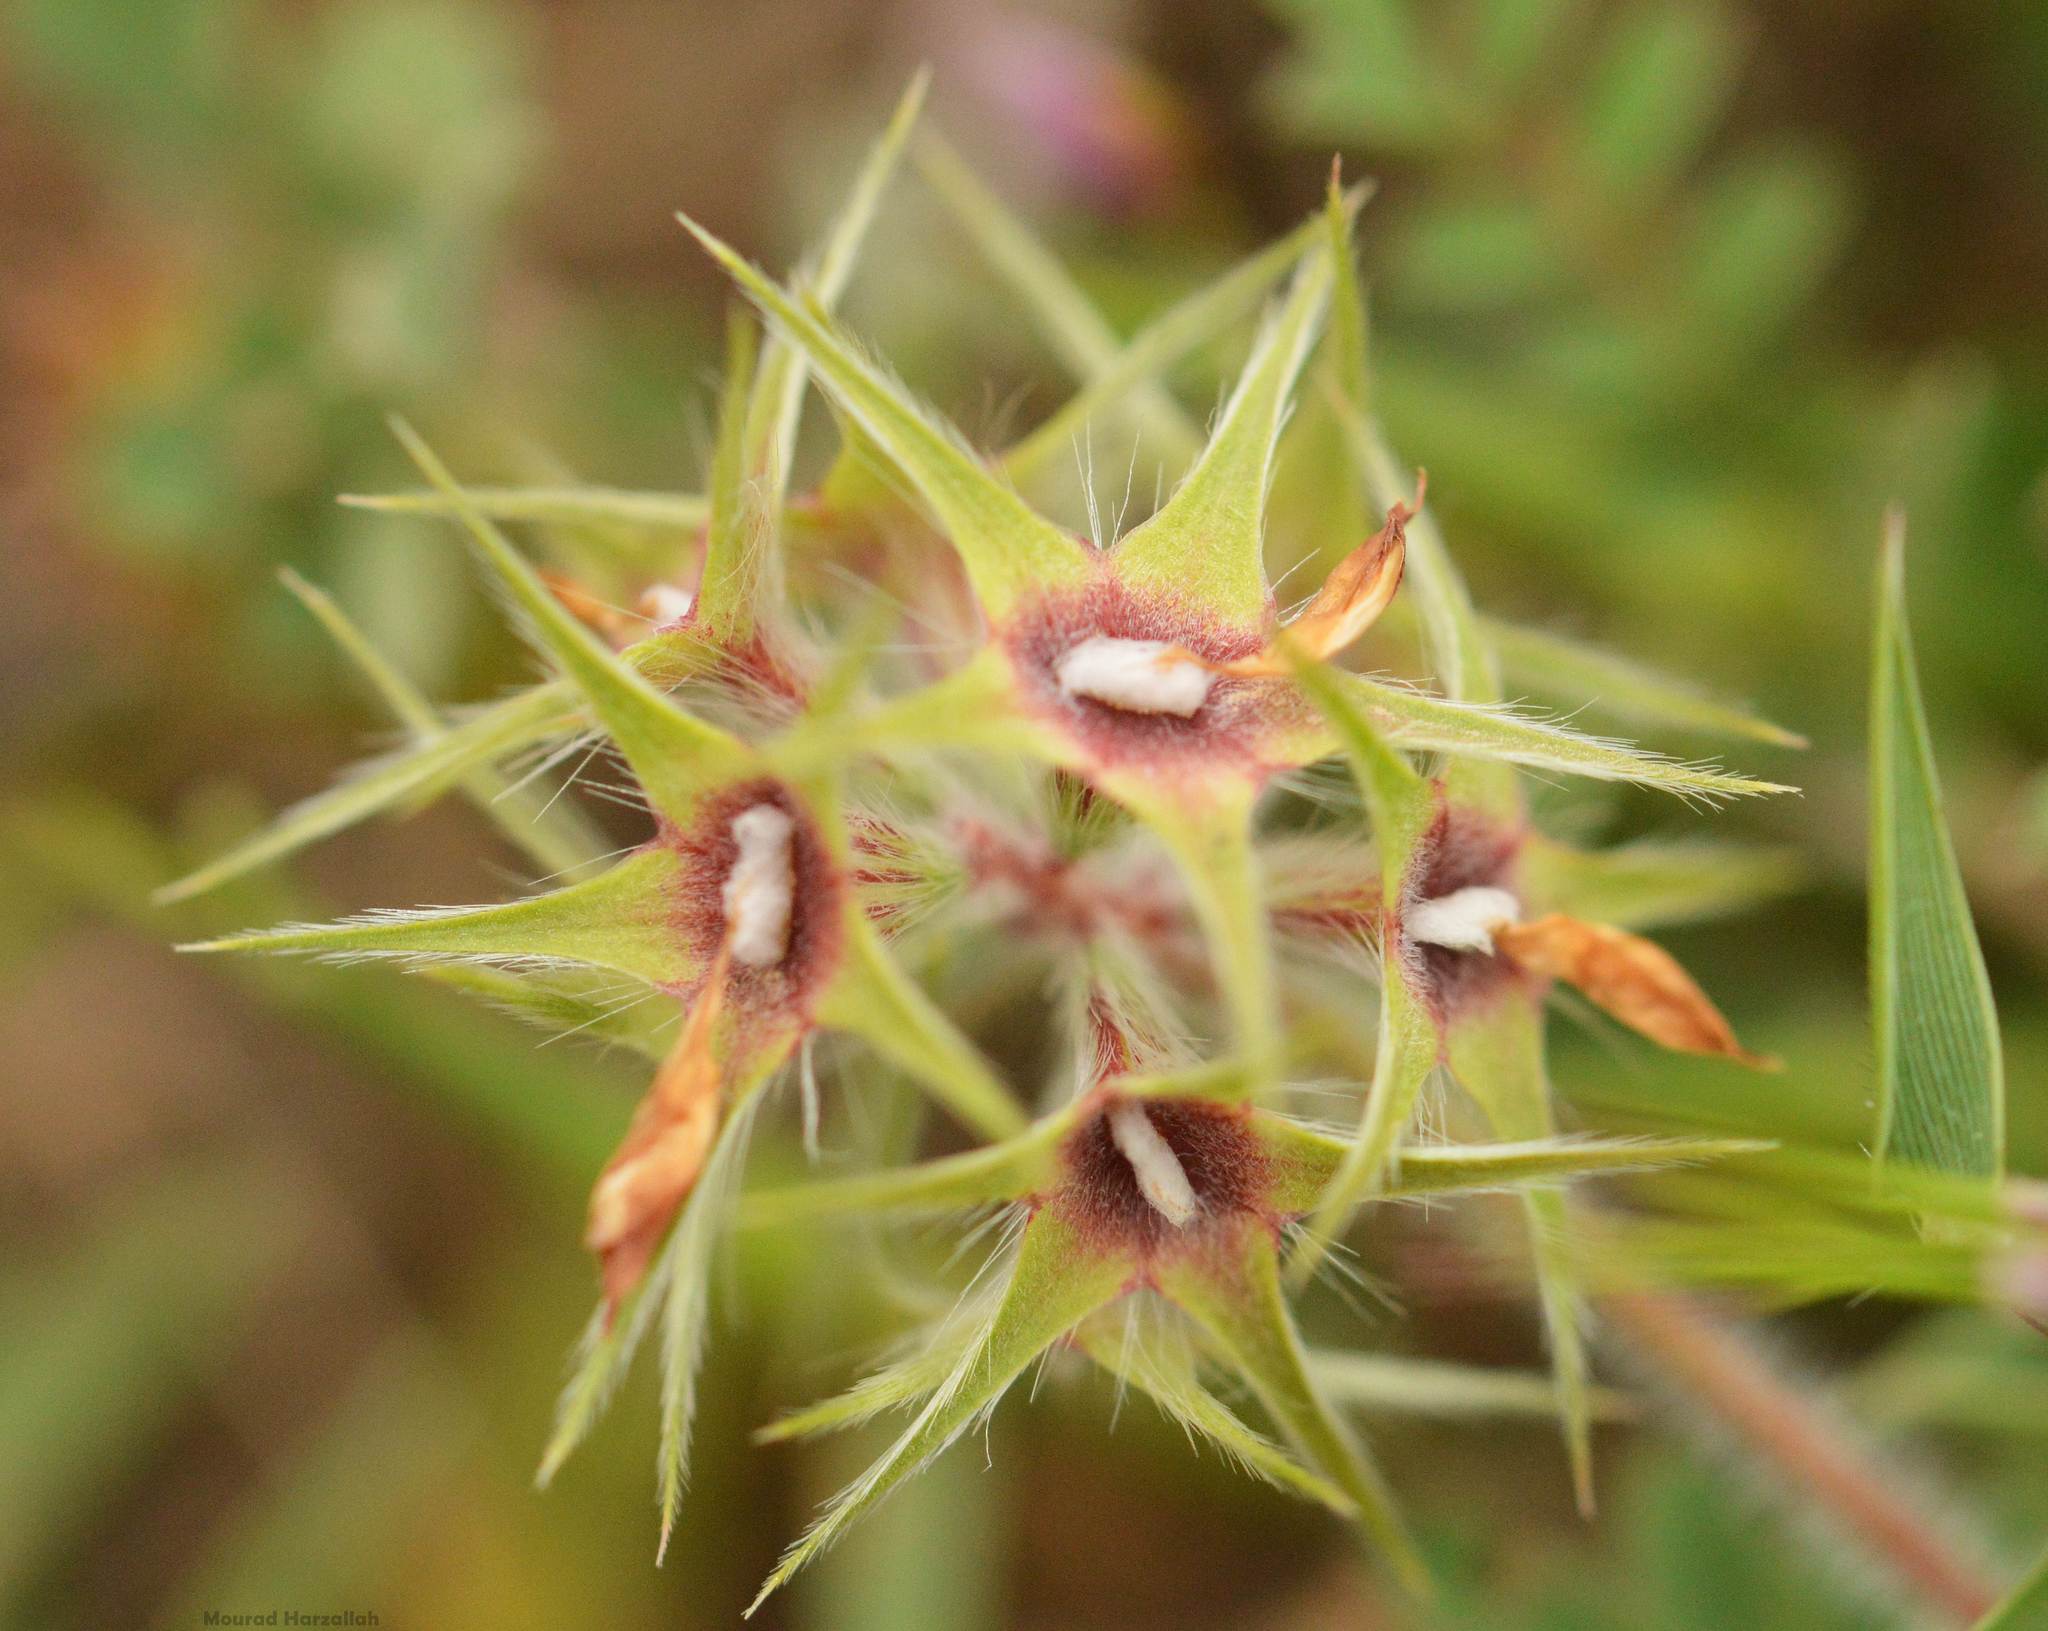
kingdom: Plantae
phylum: Tracheophyta
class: Magnoliopsida
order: Fabales
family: Fabaceae
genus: Trifolium
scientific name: Trifolium stellatum
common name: Starry clover
